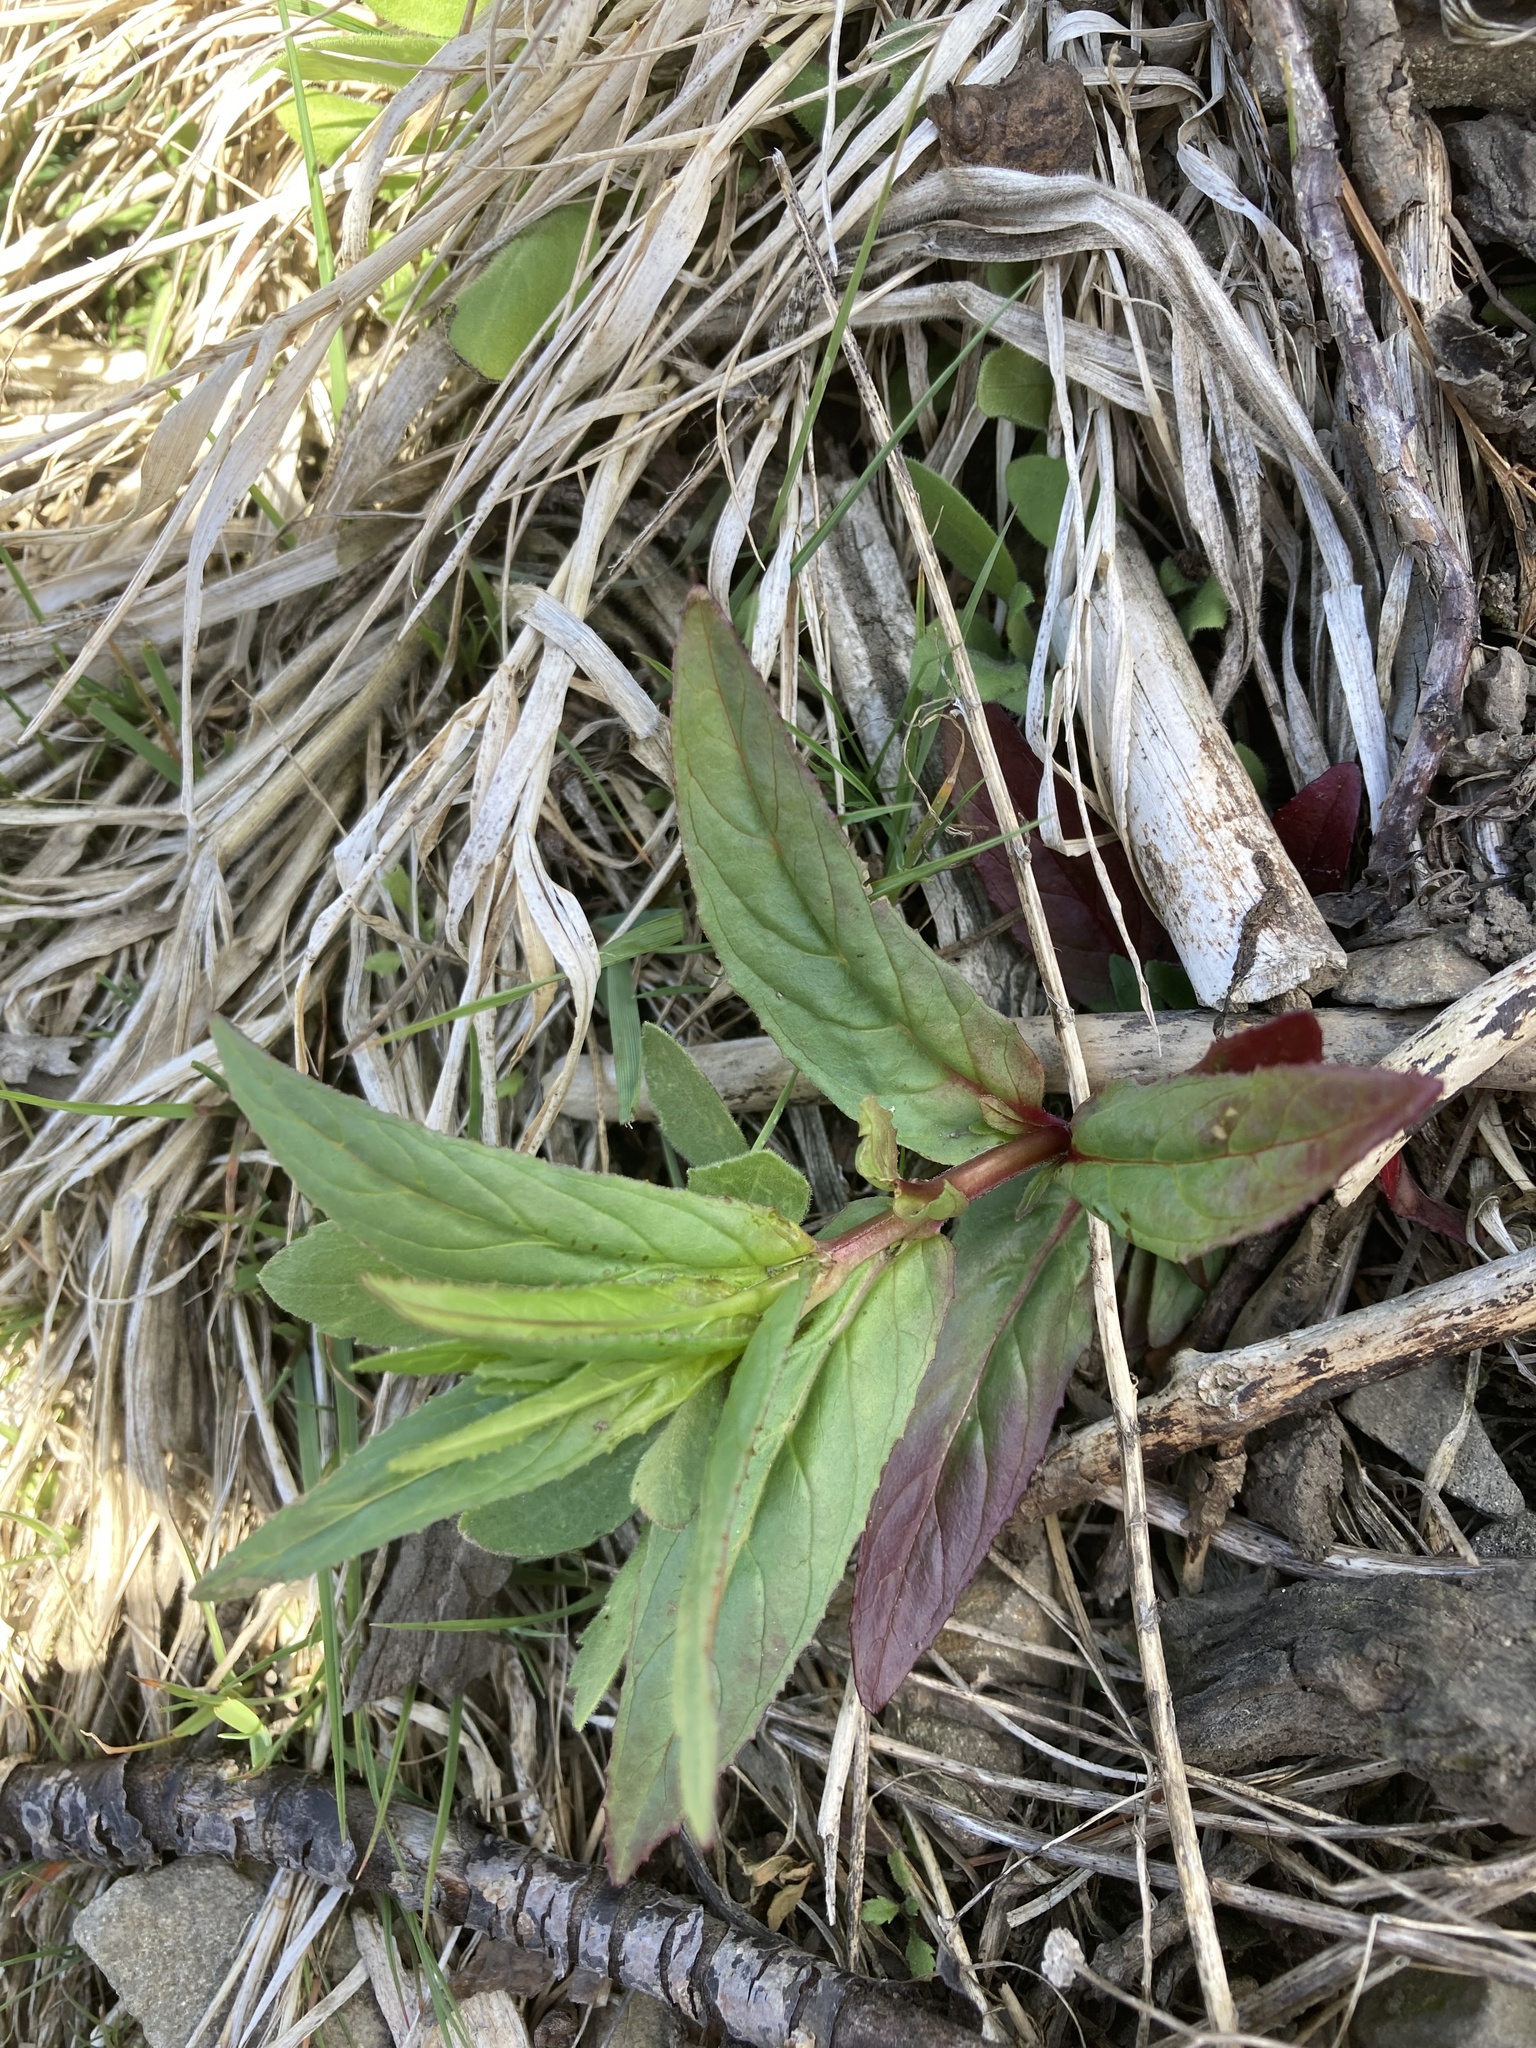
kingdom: Plantae
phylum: Tracheophyta
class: Magnoliopsida
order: Myrtales
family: Onagraceae
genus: Epilobium
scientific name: Epilobium ciliatum
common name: American willowherb
